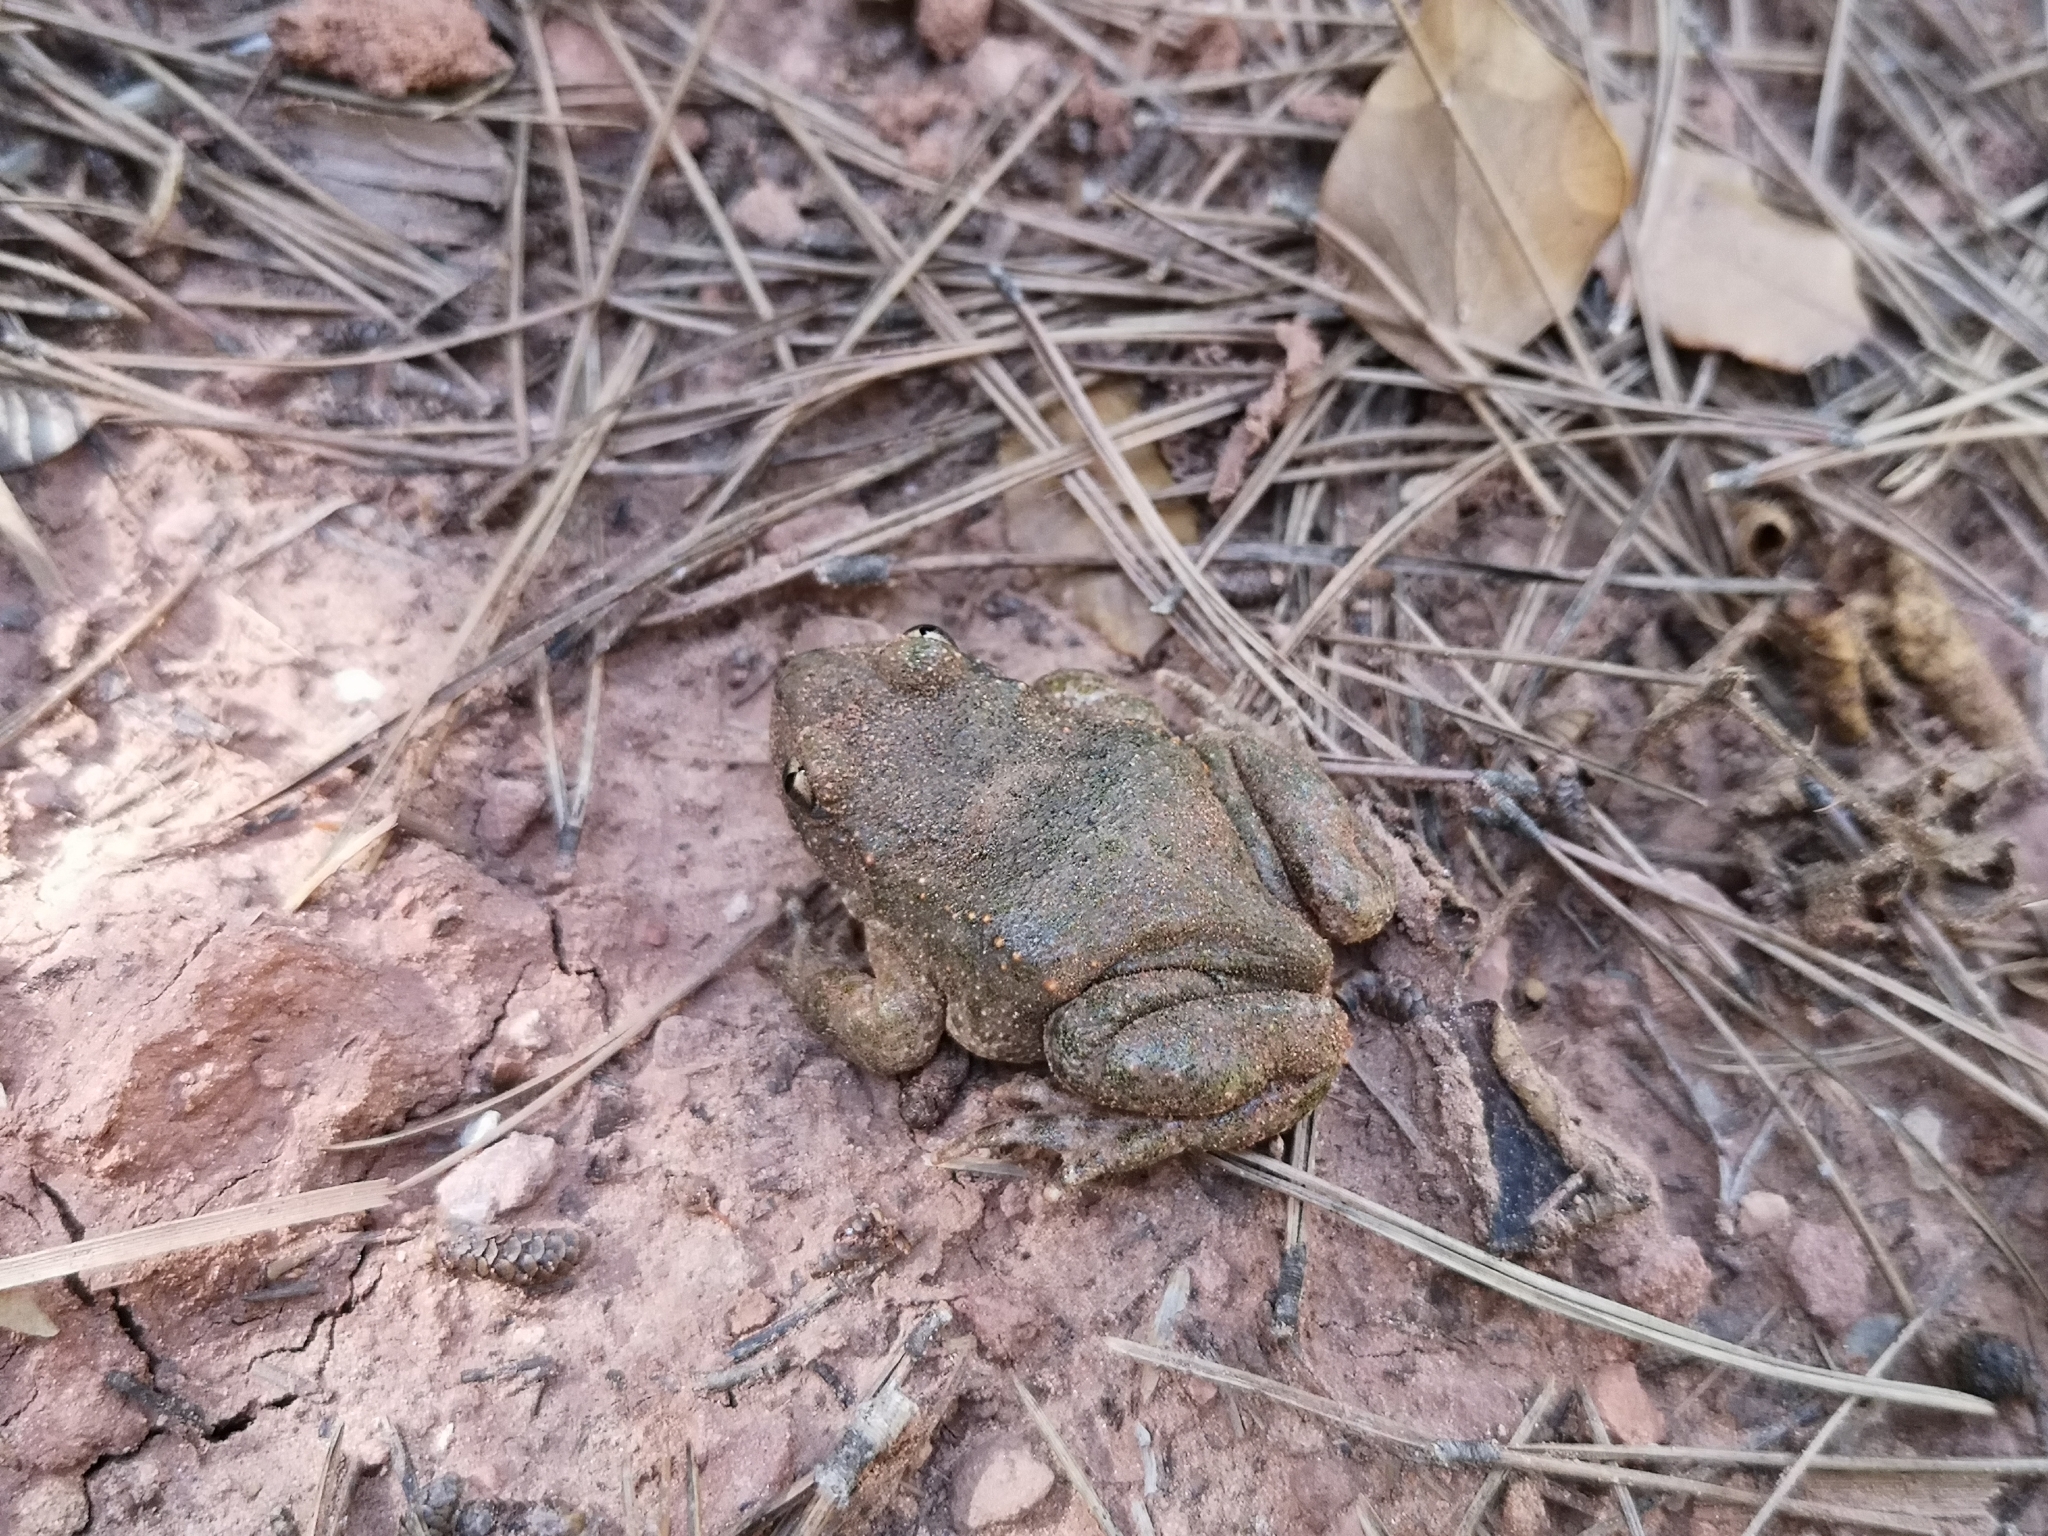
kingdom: Animalia
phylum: Chordata
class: Amphibia
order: Anura
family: Alytidae
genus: Alytes
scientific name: Alytes obstetricans
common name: Midwife toad
